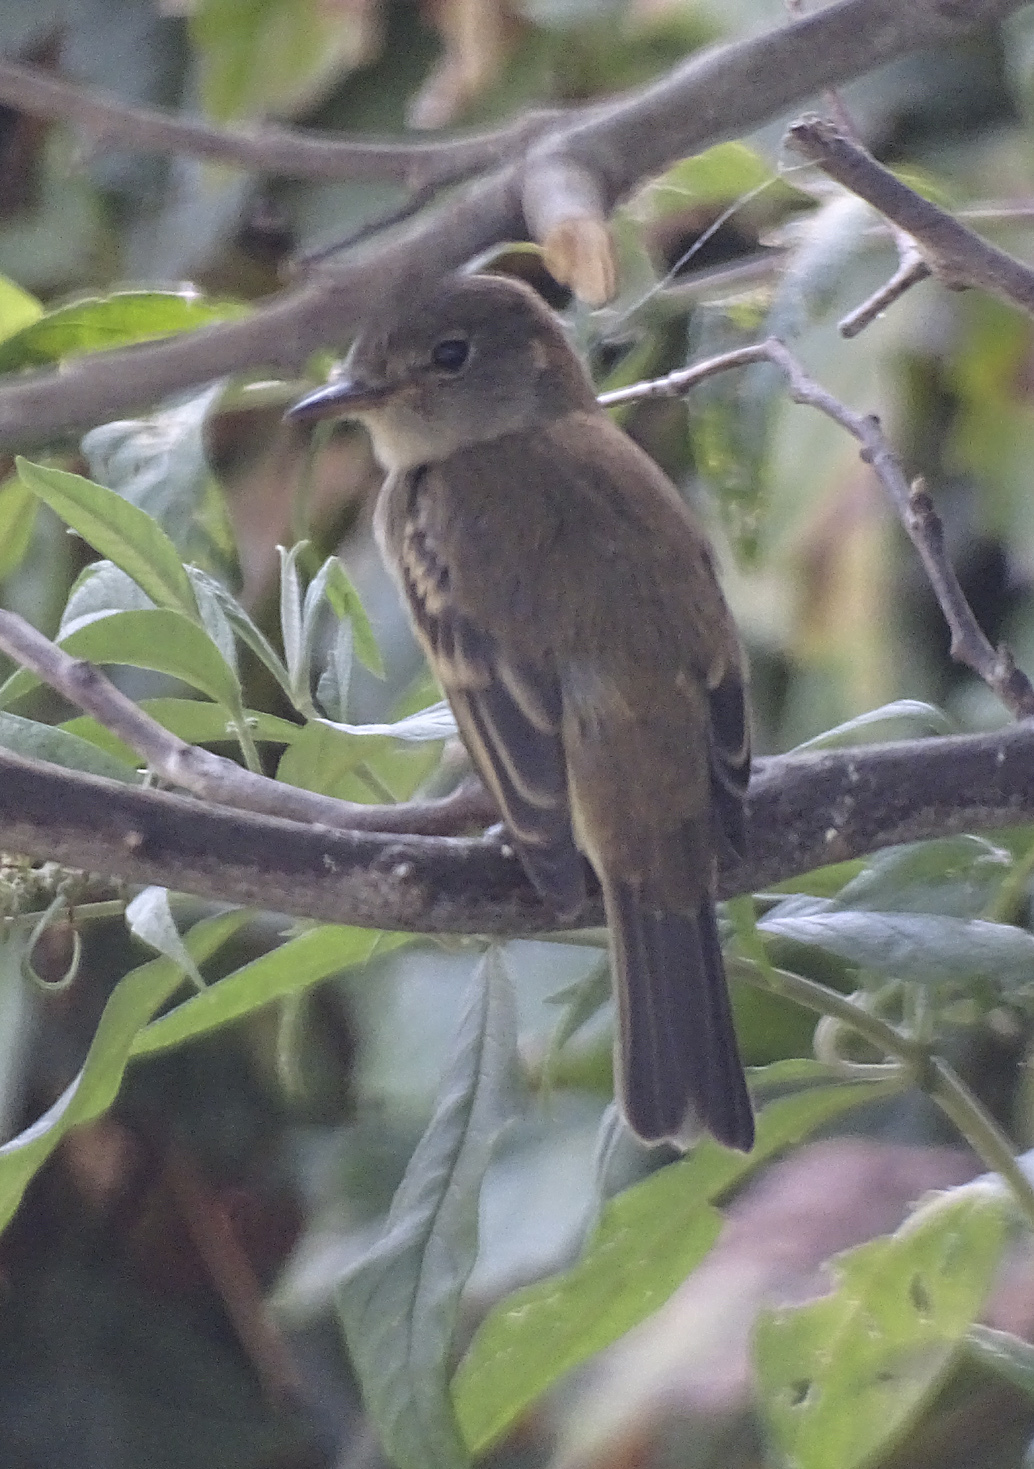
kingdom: Animalia
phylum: Chordata
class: Aves
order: Passeriformes
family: Tyrannidae
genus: Empidonax
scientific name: Empidonax traillii
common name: Willow flycatcher
